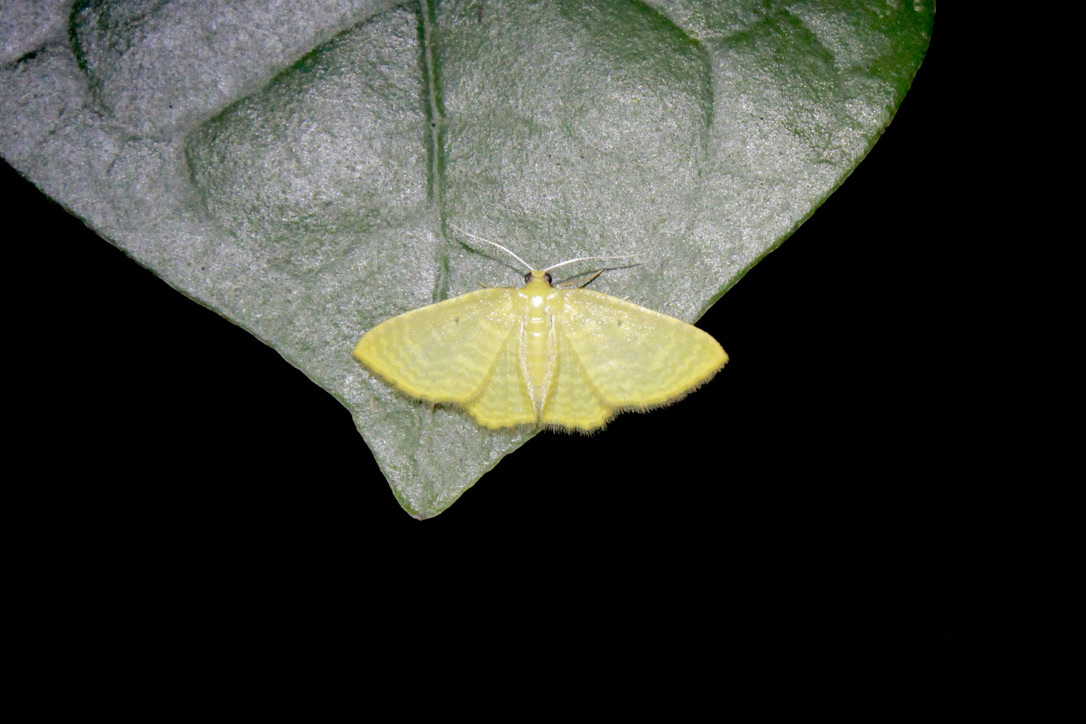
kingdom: Animalia
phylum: Arthropoda
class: Insecta
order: Lepidoptera
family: Geometridae
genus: Eois
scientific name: Eois marcearia
